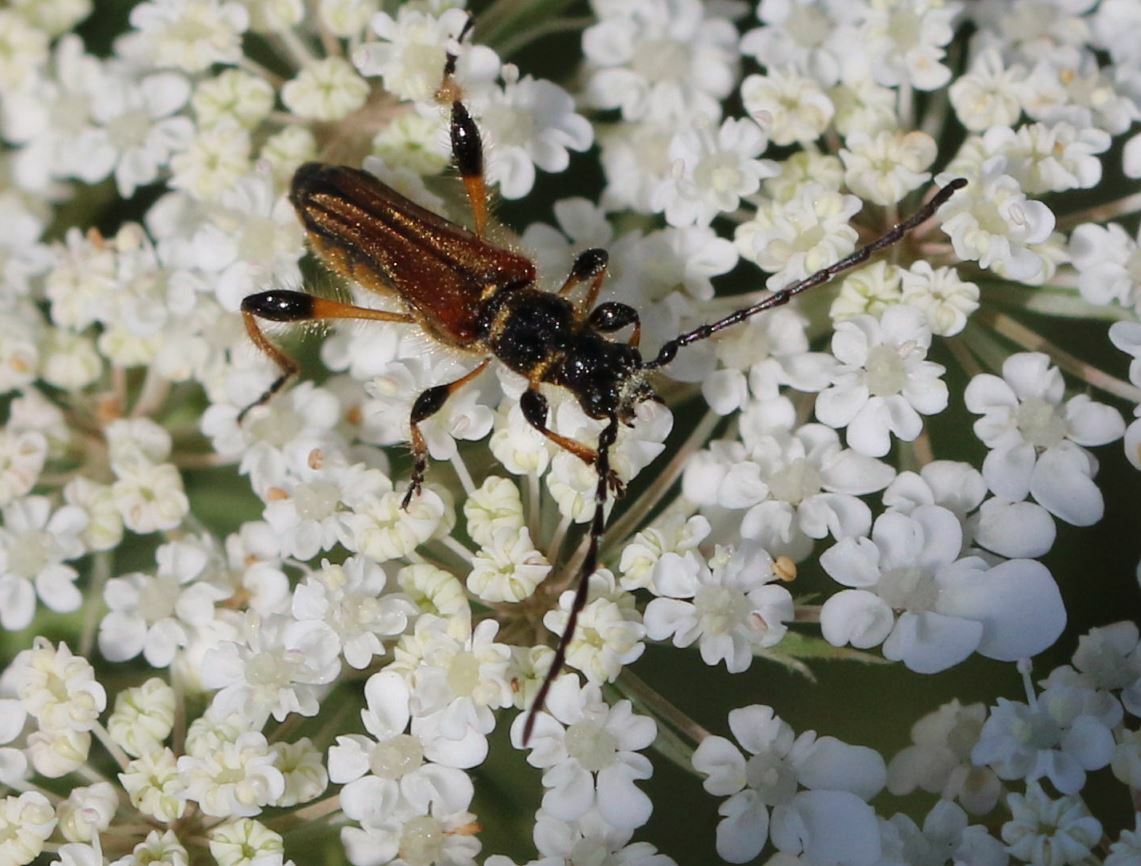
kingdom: Animalia
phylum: Arthropoda
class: Insecta
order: Coleoptera
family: Cerambycidae
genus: Stenopterus
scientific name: Stenopterus ater
